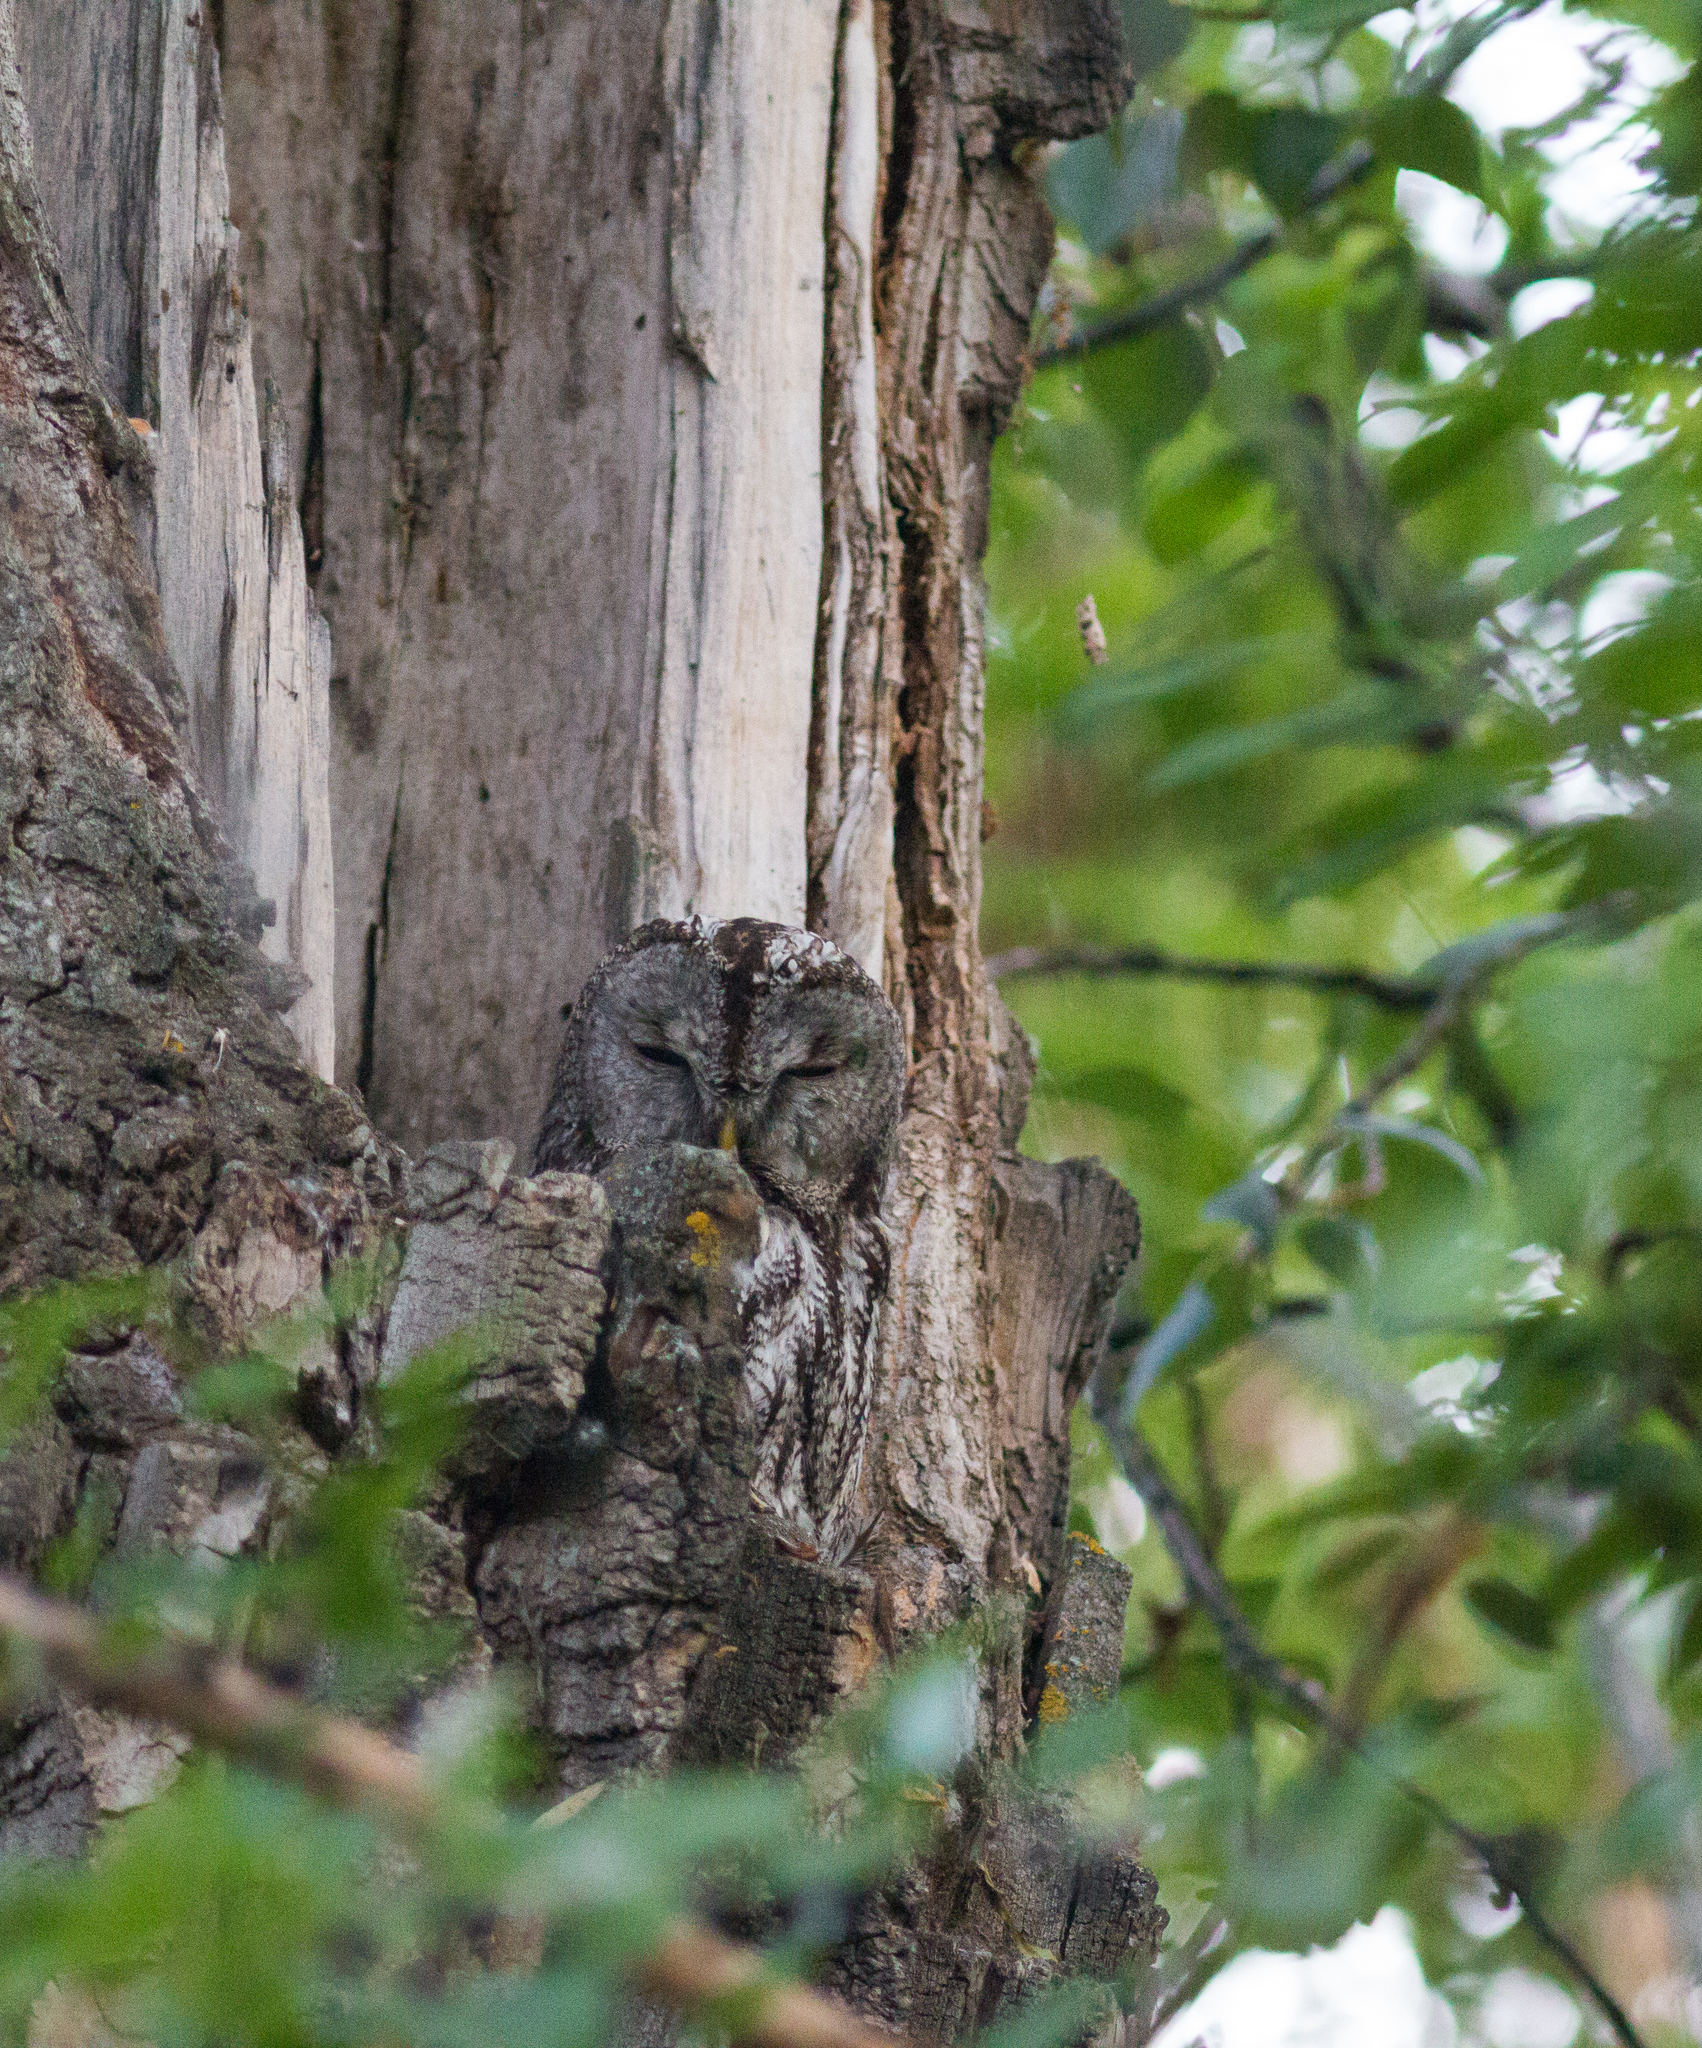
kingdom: Animalia
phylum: Chordata
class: Aves
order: Strigiformes
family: Strigidae
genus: Strix
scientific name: Strix aluco
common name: Tawny owl
